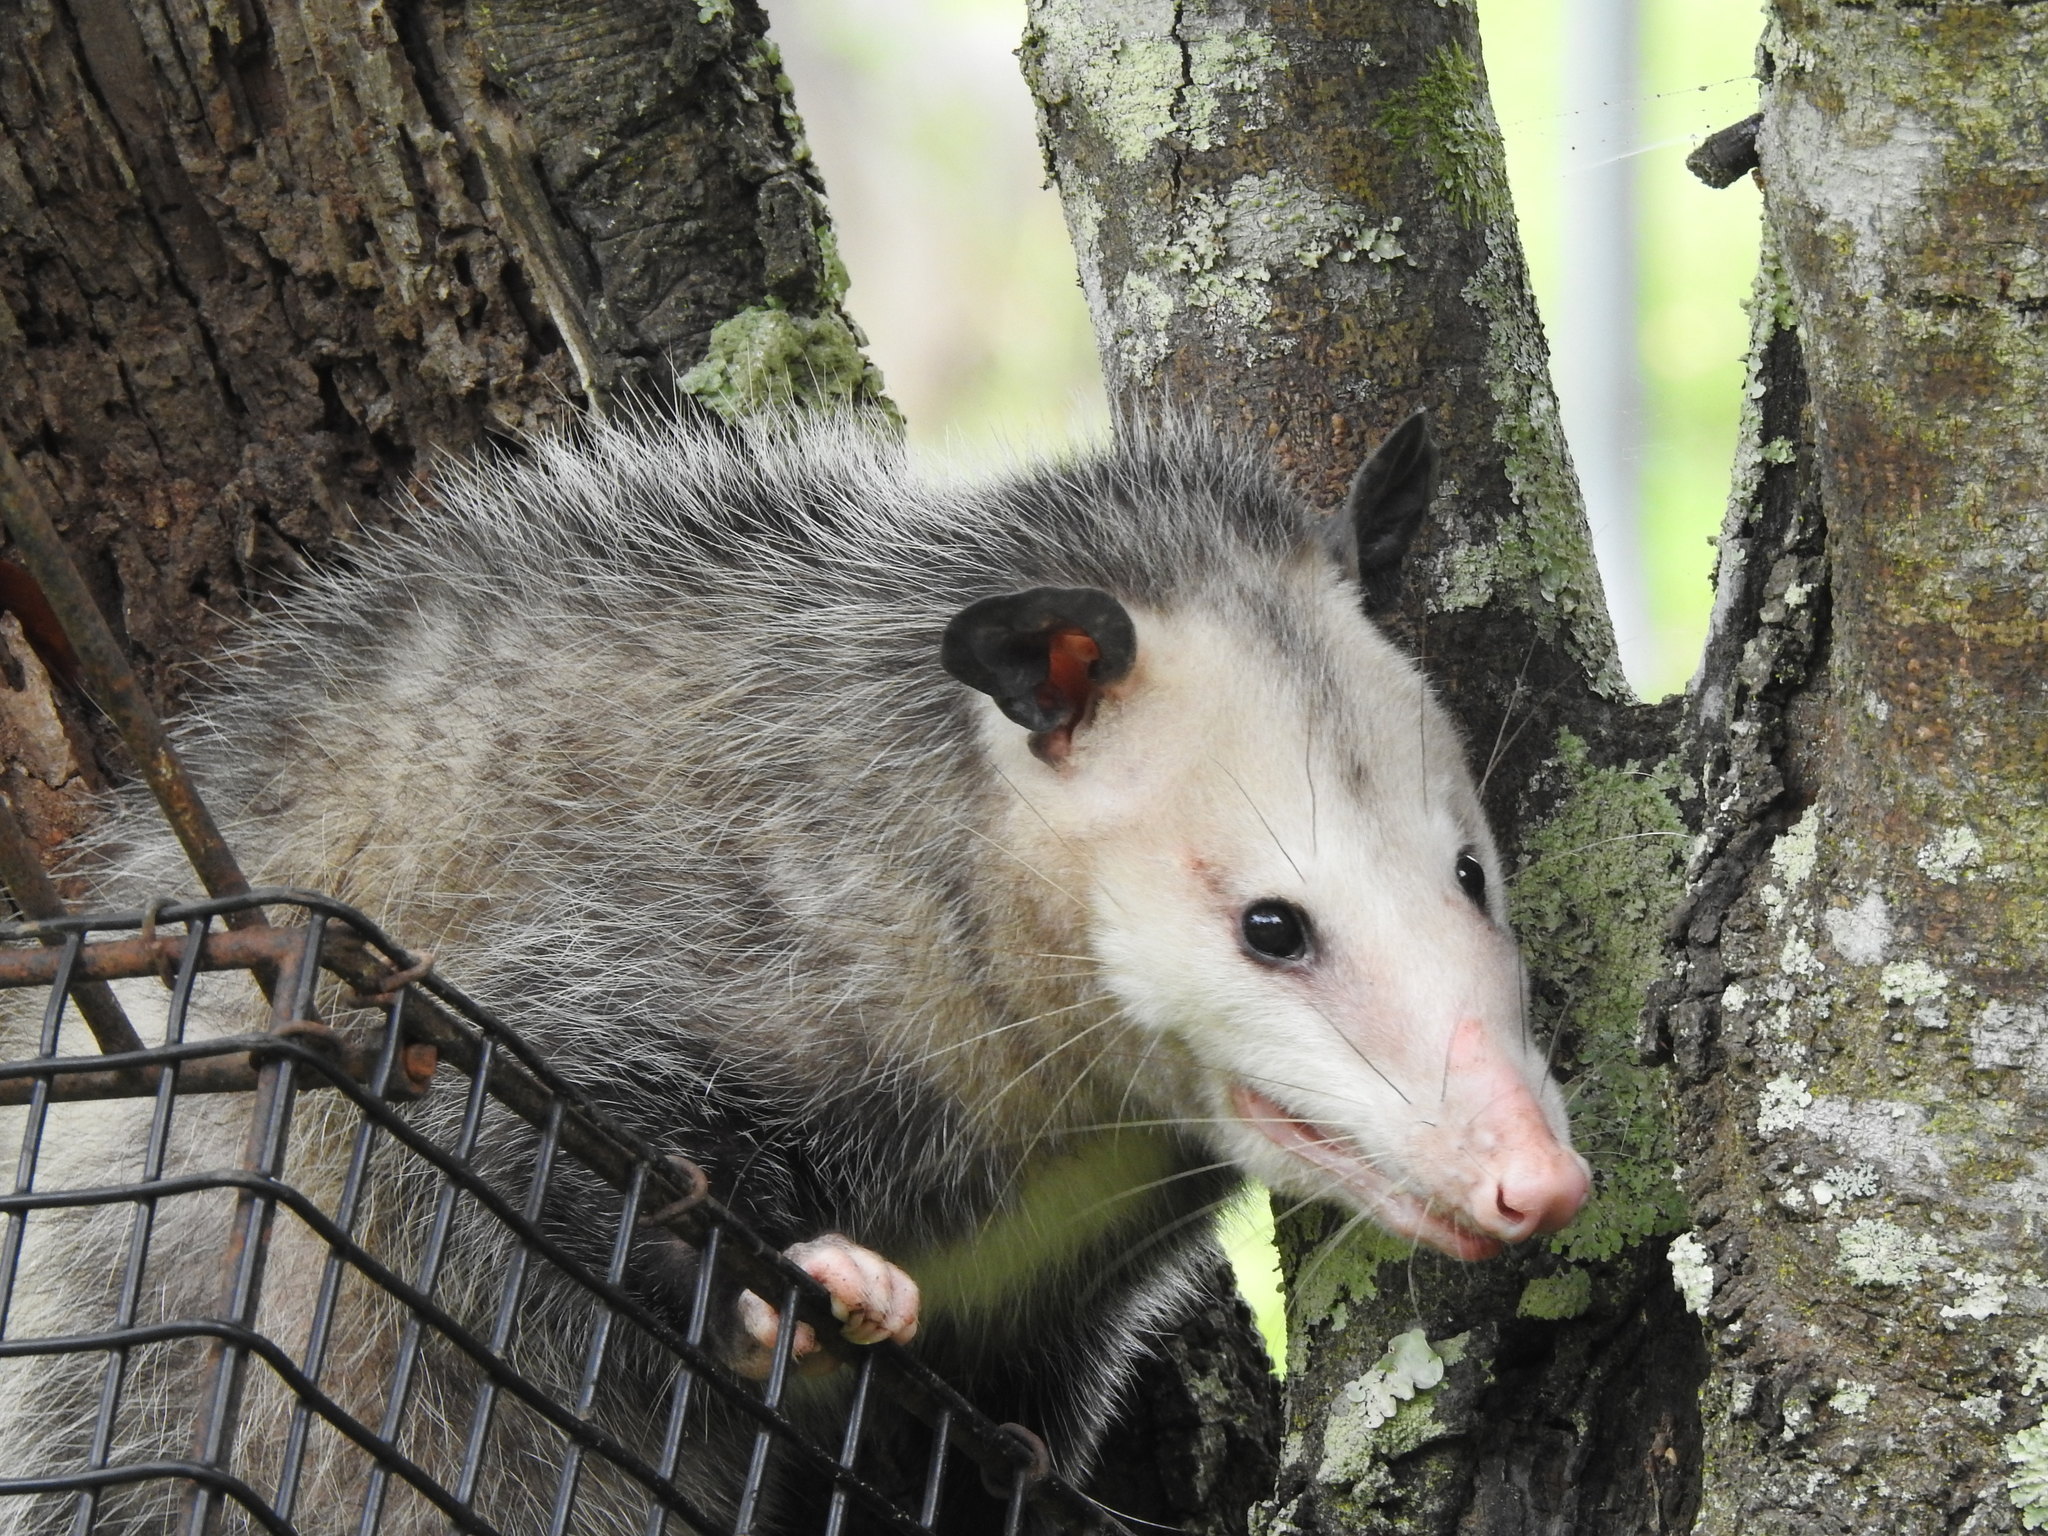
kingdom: Animalia
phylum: Chordata
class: Mammalia
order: Didelphimorphia
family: Didelphidae
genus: Didelphis
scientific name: Didelphis virginiana
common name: Virginia opossum
